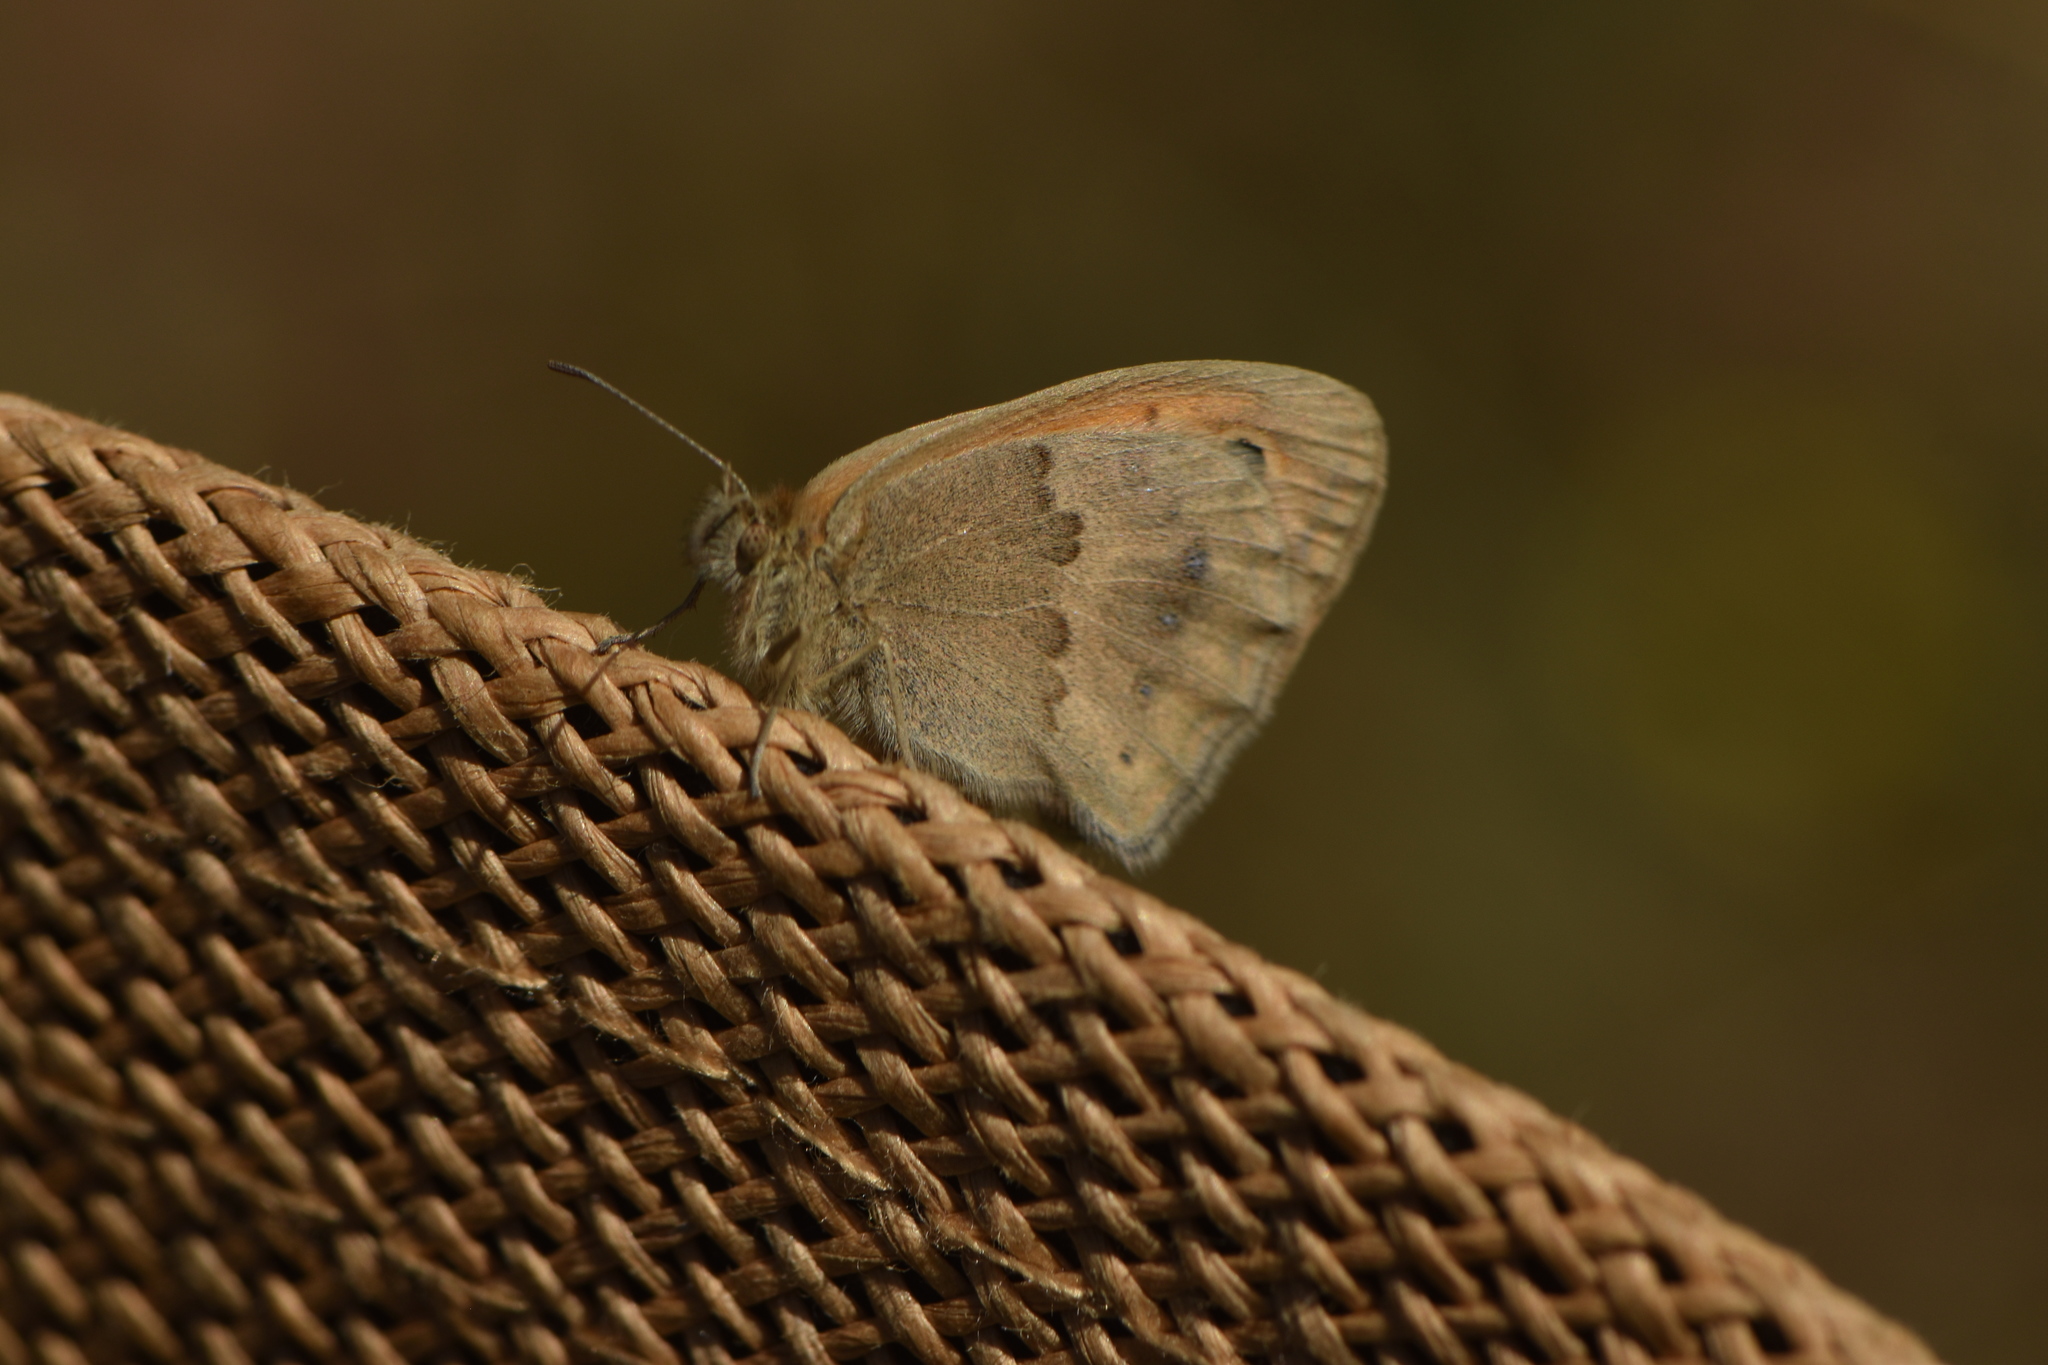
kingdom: Animalia
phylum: Arthropoda
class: Insecta
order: Lepidoptera
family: Nymphalidae
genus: Coenonympha
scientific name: Coenonympha pamphilus
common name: Small heath
